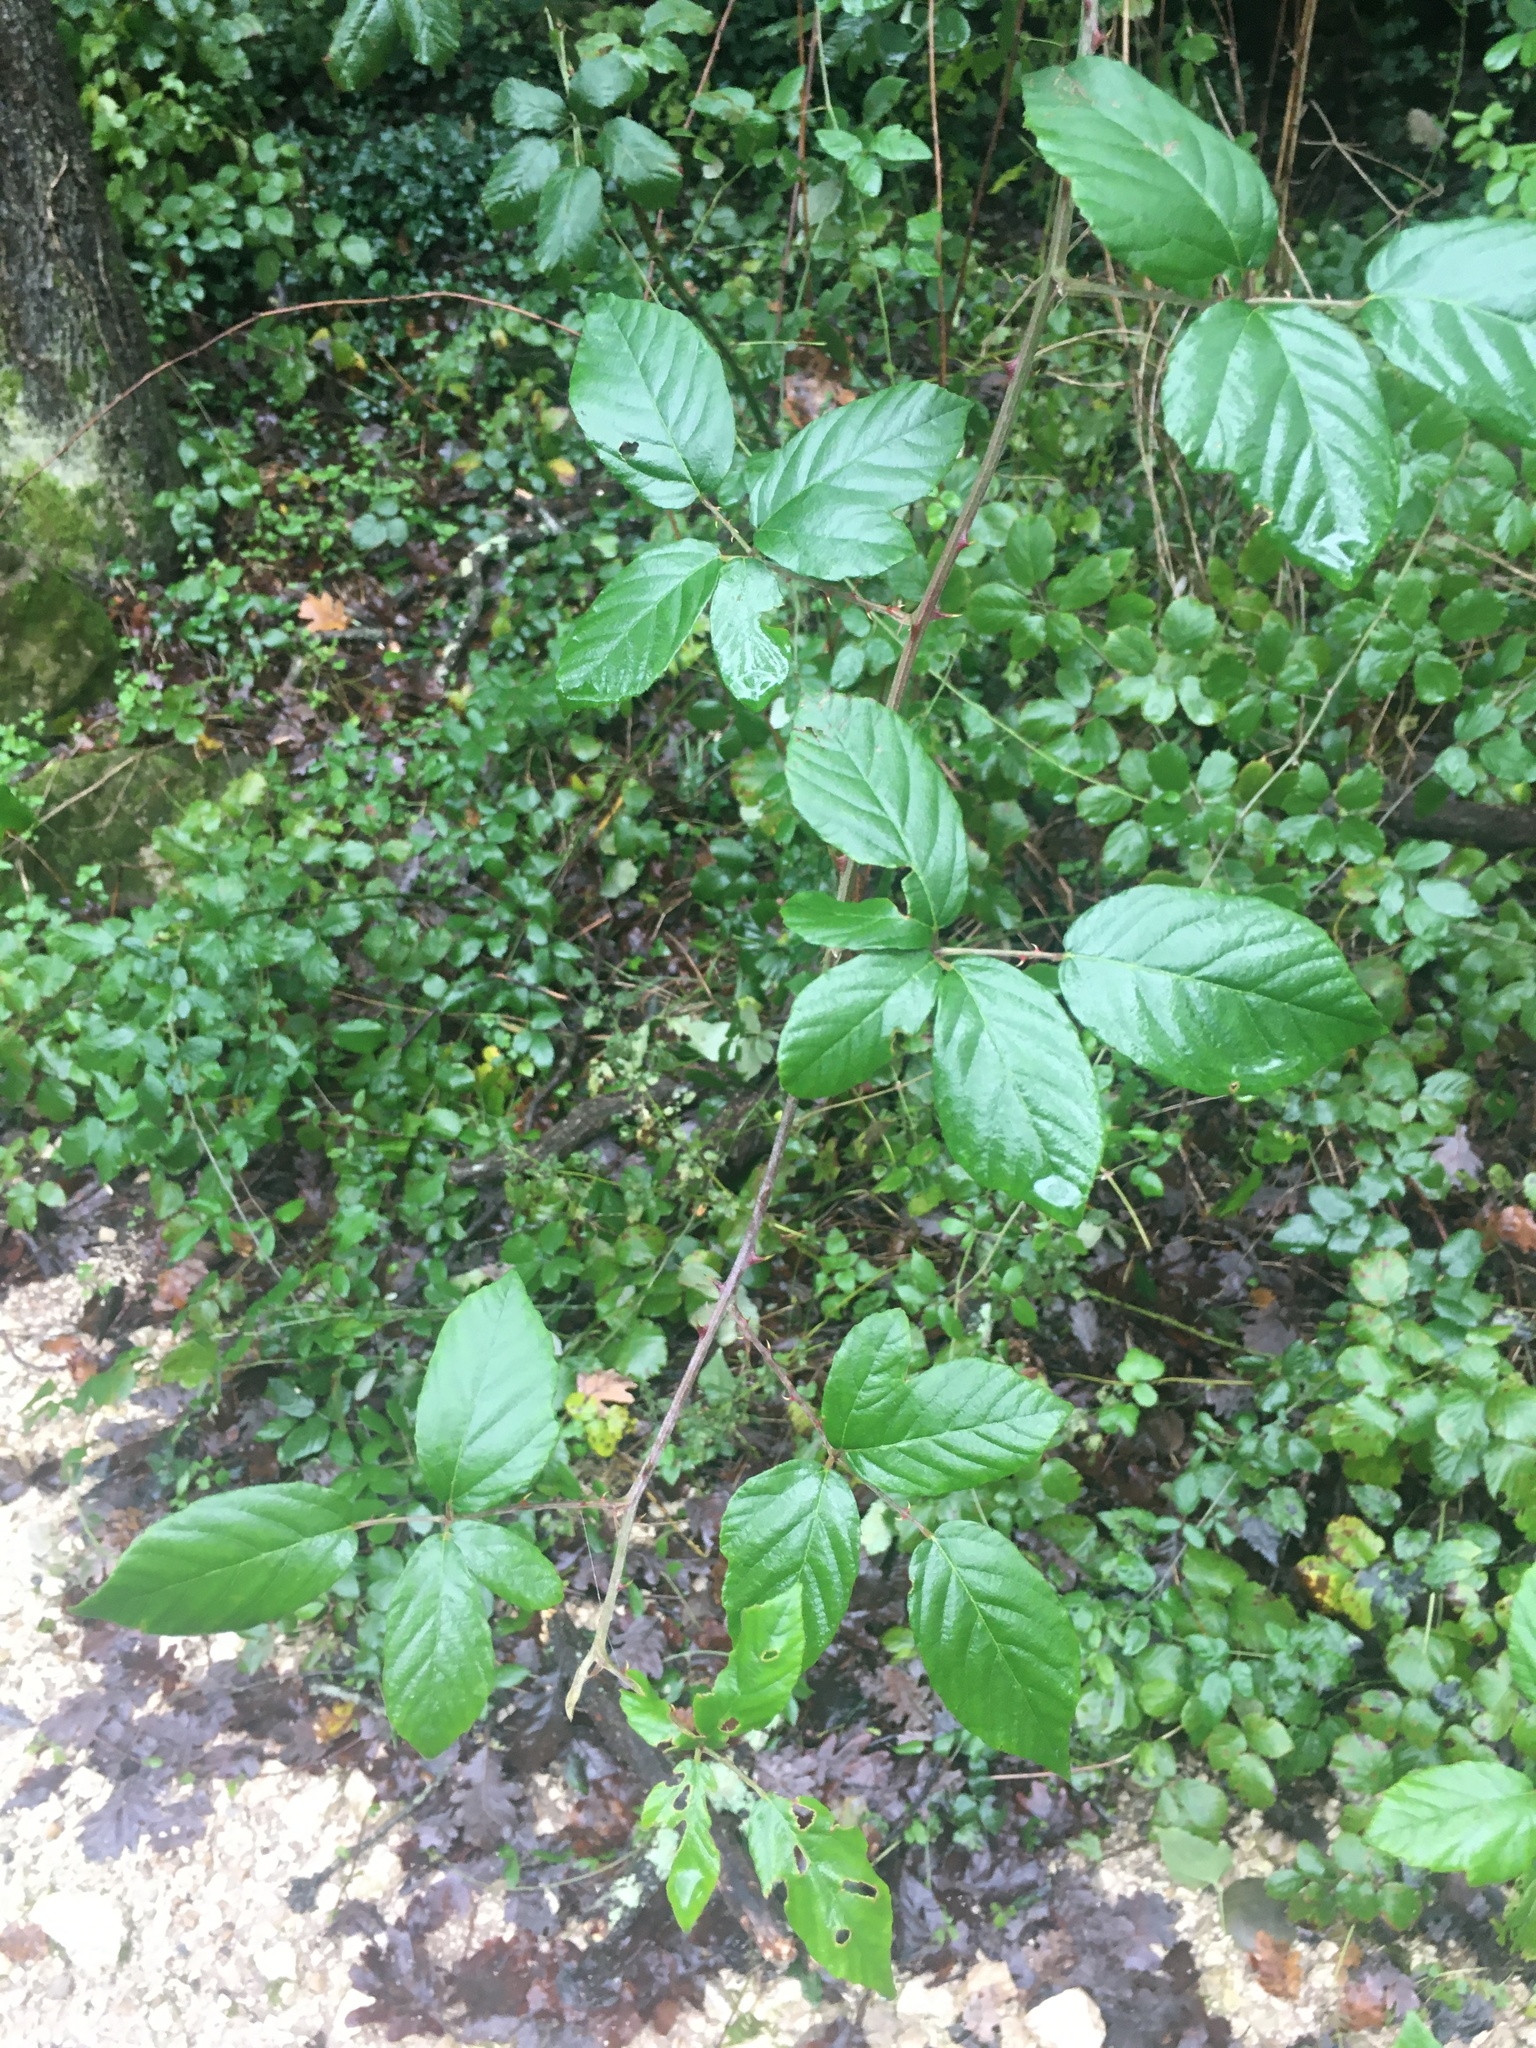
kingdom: Plantae
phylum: Tracheophyta
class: Magnoliopsida
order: Rosales
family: Rosaceae
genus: Rubus
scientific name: Rubus ulmifolius
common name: Elmleaf blackberry
